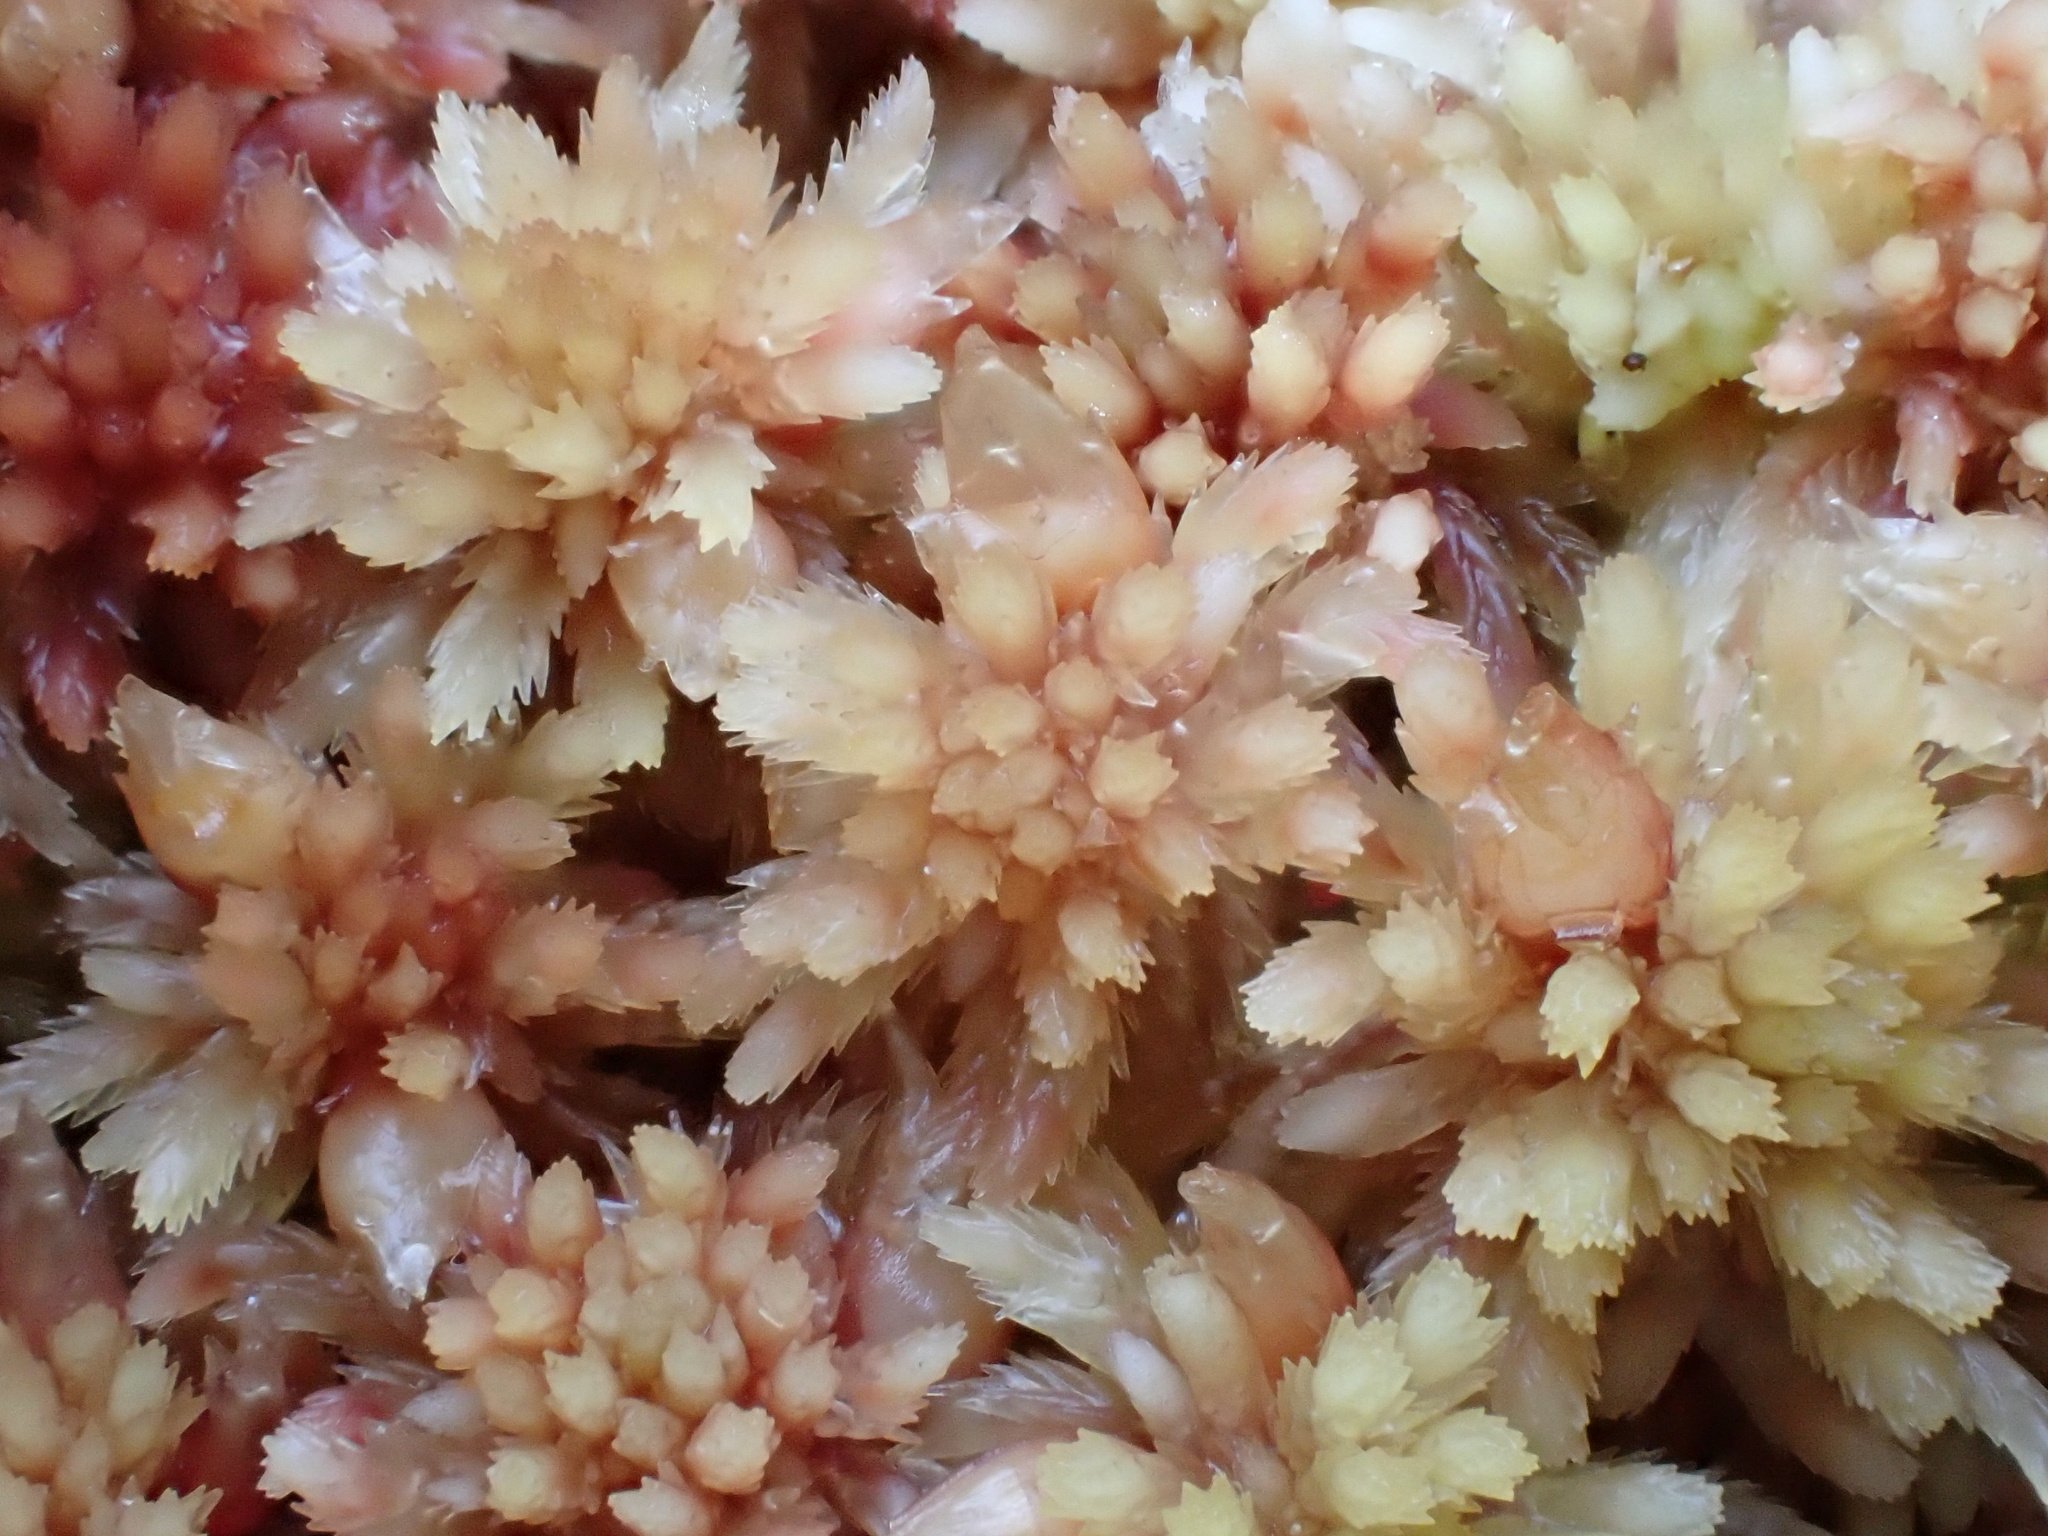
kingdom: Plantae
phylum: Bryophyta
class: Sphagnopsida
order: Sphagnales
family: Sphagnaceae
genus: Sphagnum
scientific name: Sphagnum rubellum
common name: Red peat moss
